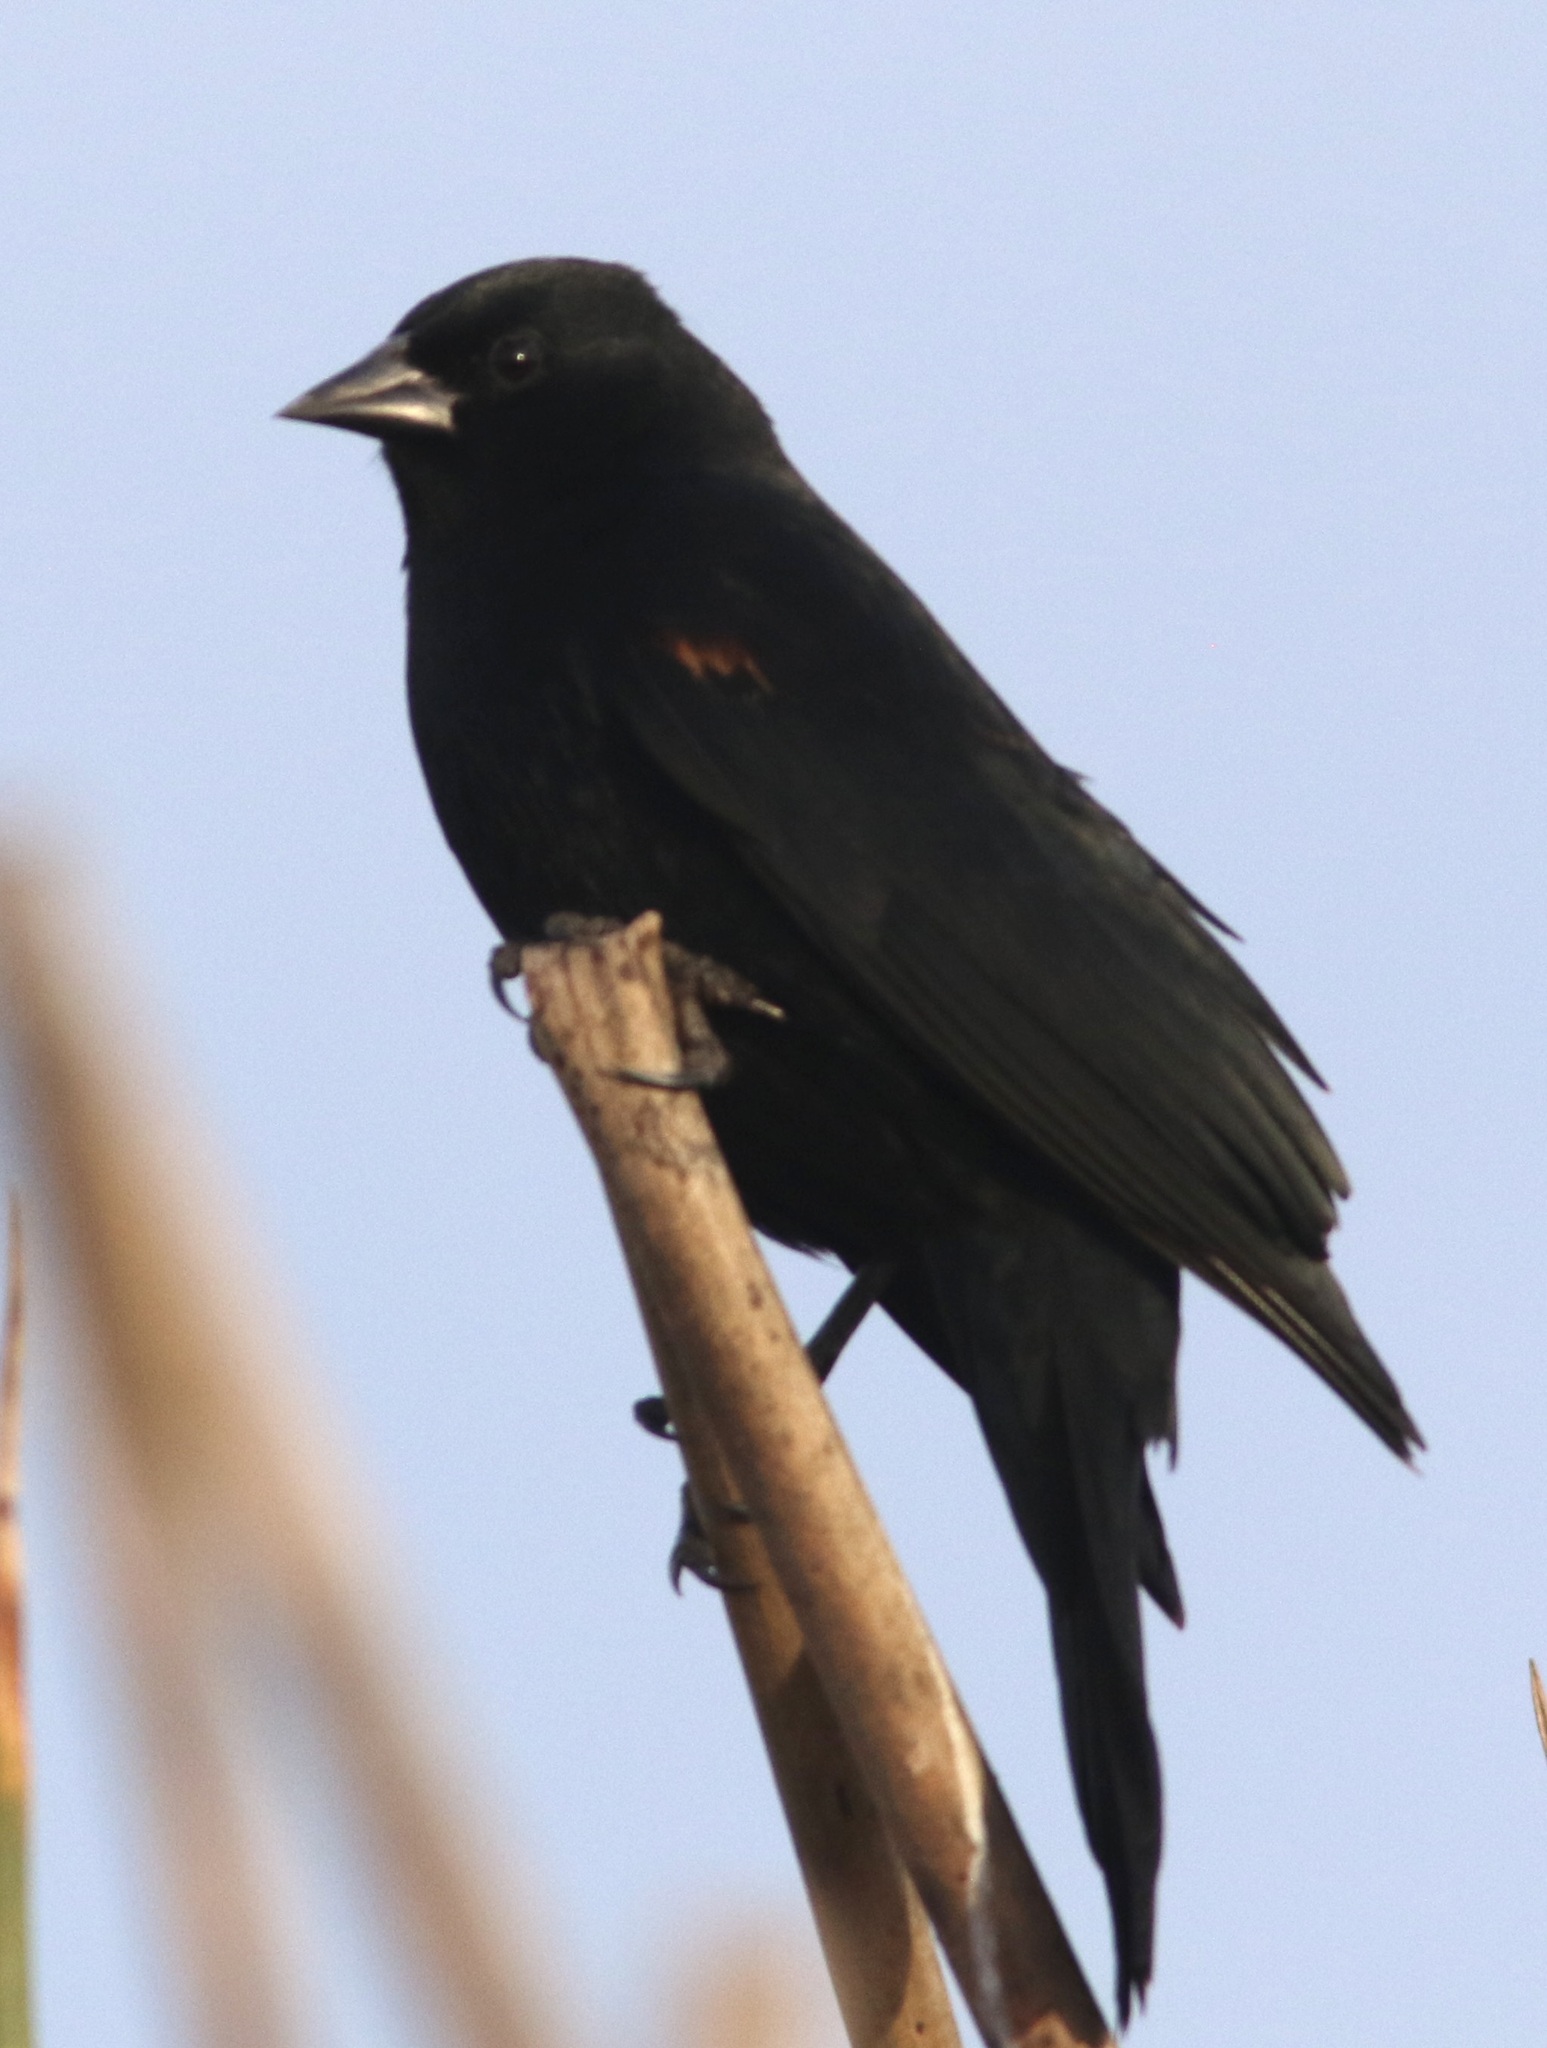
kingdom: Animalia
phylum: Chordata
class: Aves
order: Passeriformes
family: Icteridae
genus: Agelaius
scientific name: Agelaius phoeniceus
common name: Red-winged blackbird
